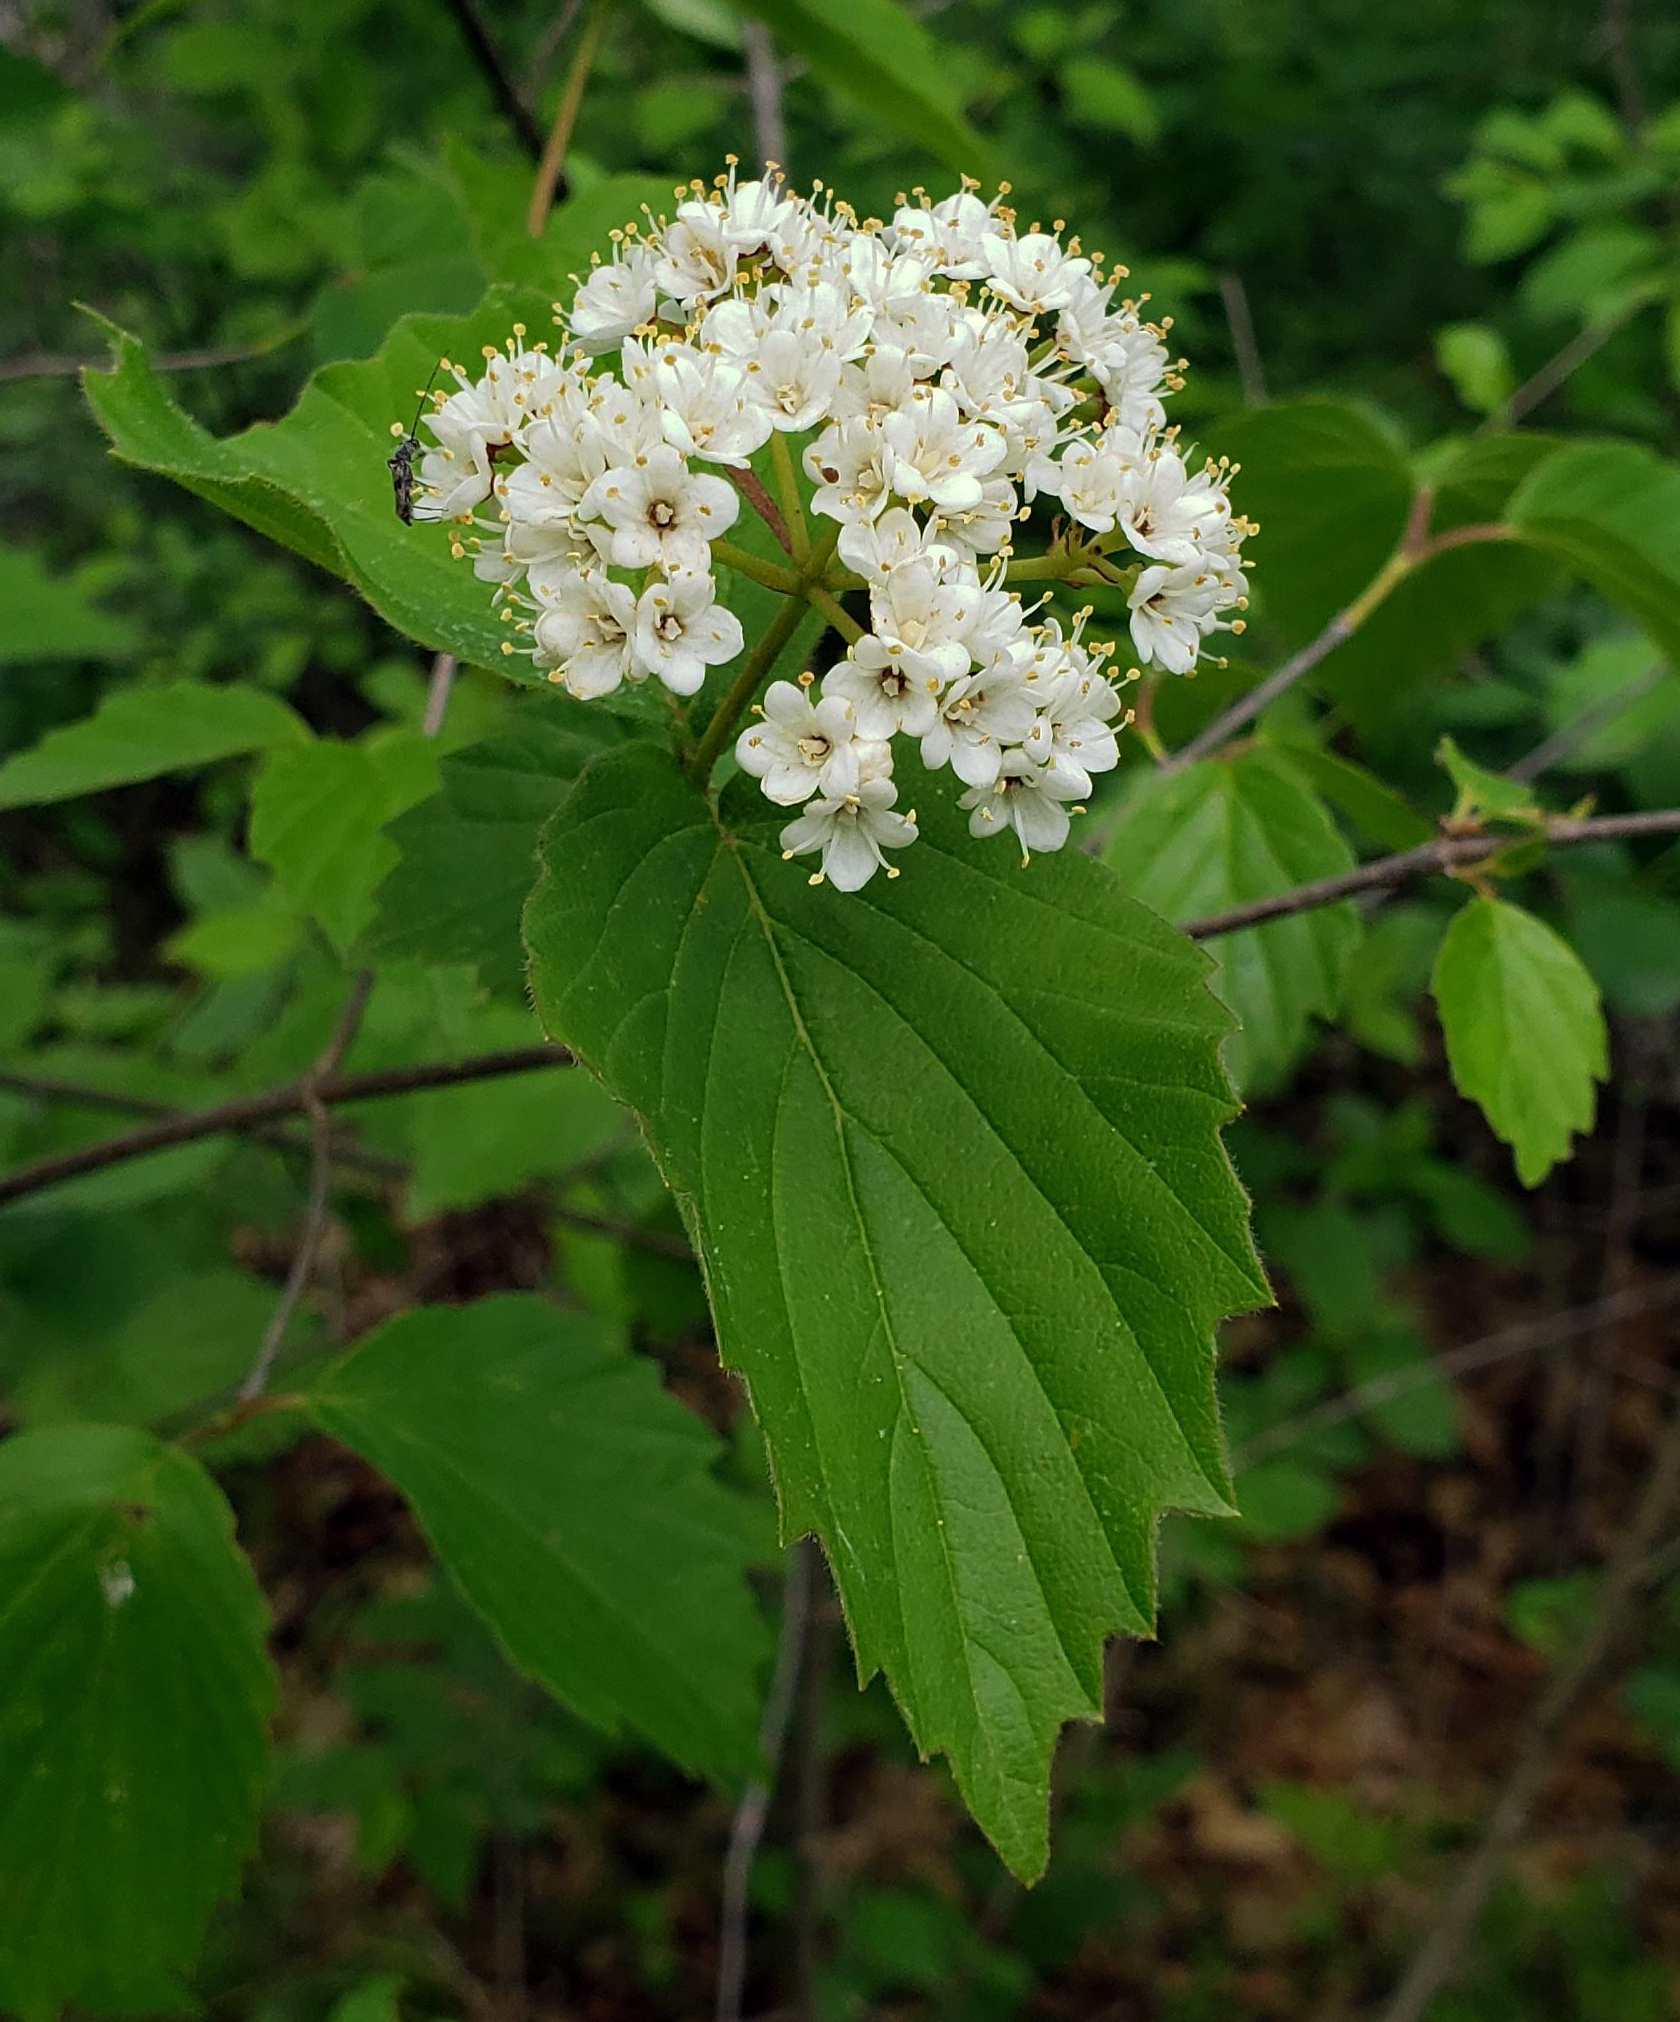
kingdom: Plantae
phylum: Tracheophyta
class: Magnoliopsida
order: Dipsacales
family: Viburnaceae
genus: Viburnum
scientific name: Viburnum rafinesqueanum
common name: Downy arrow-wood
